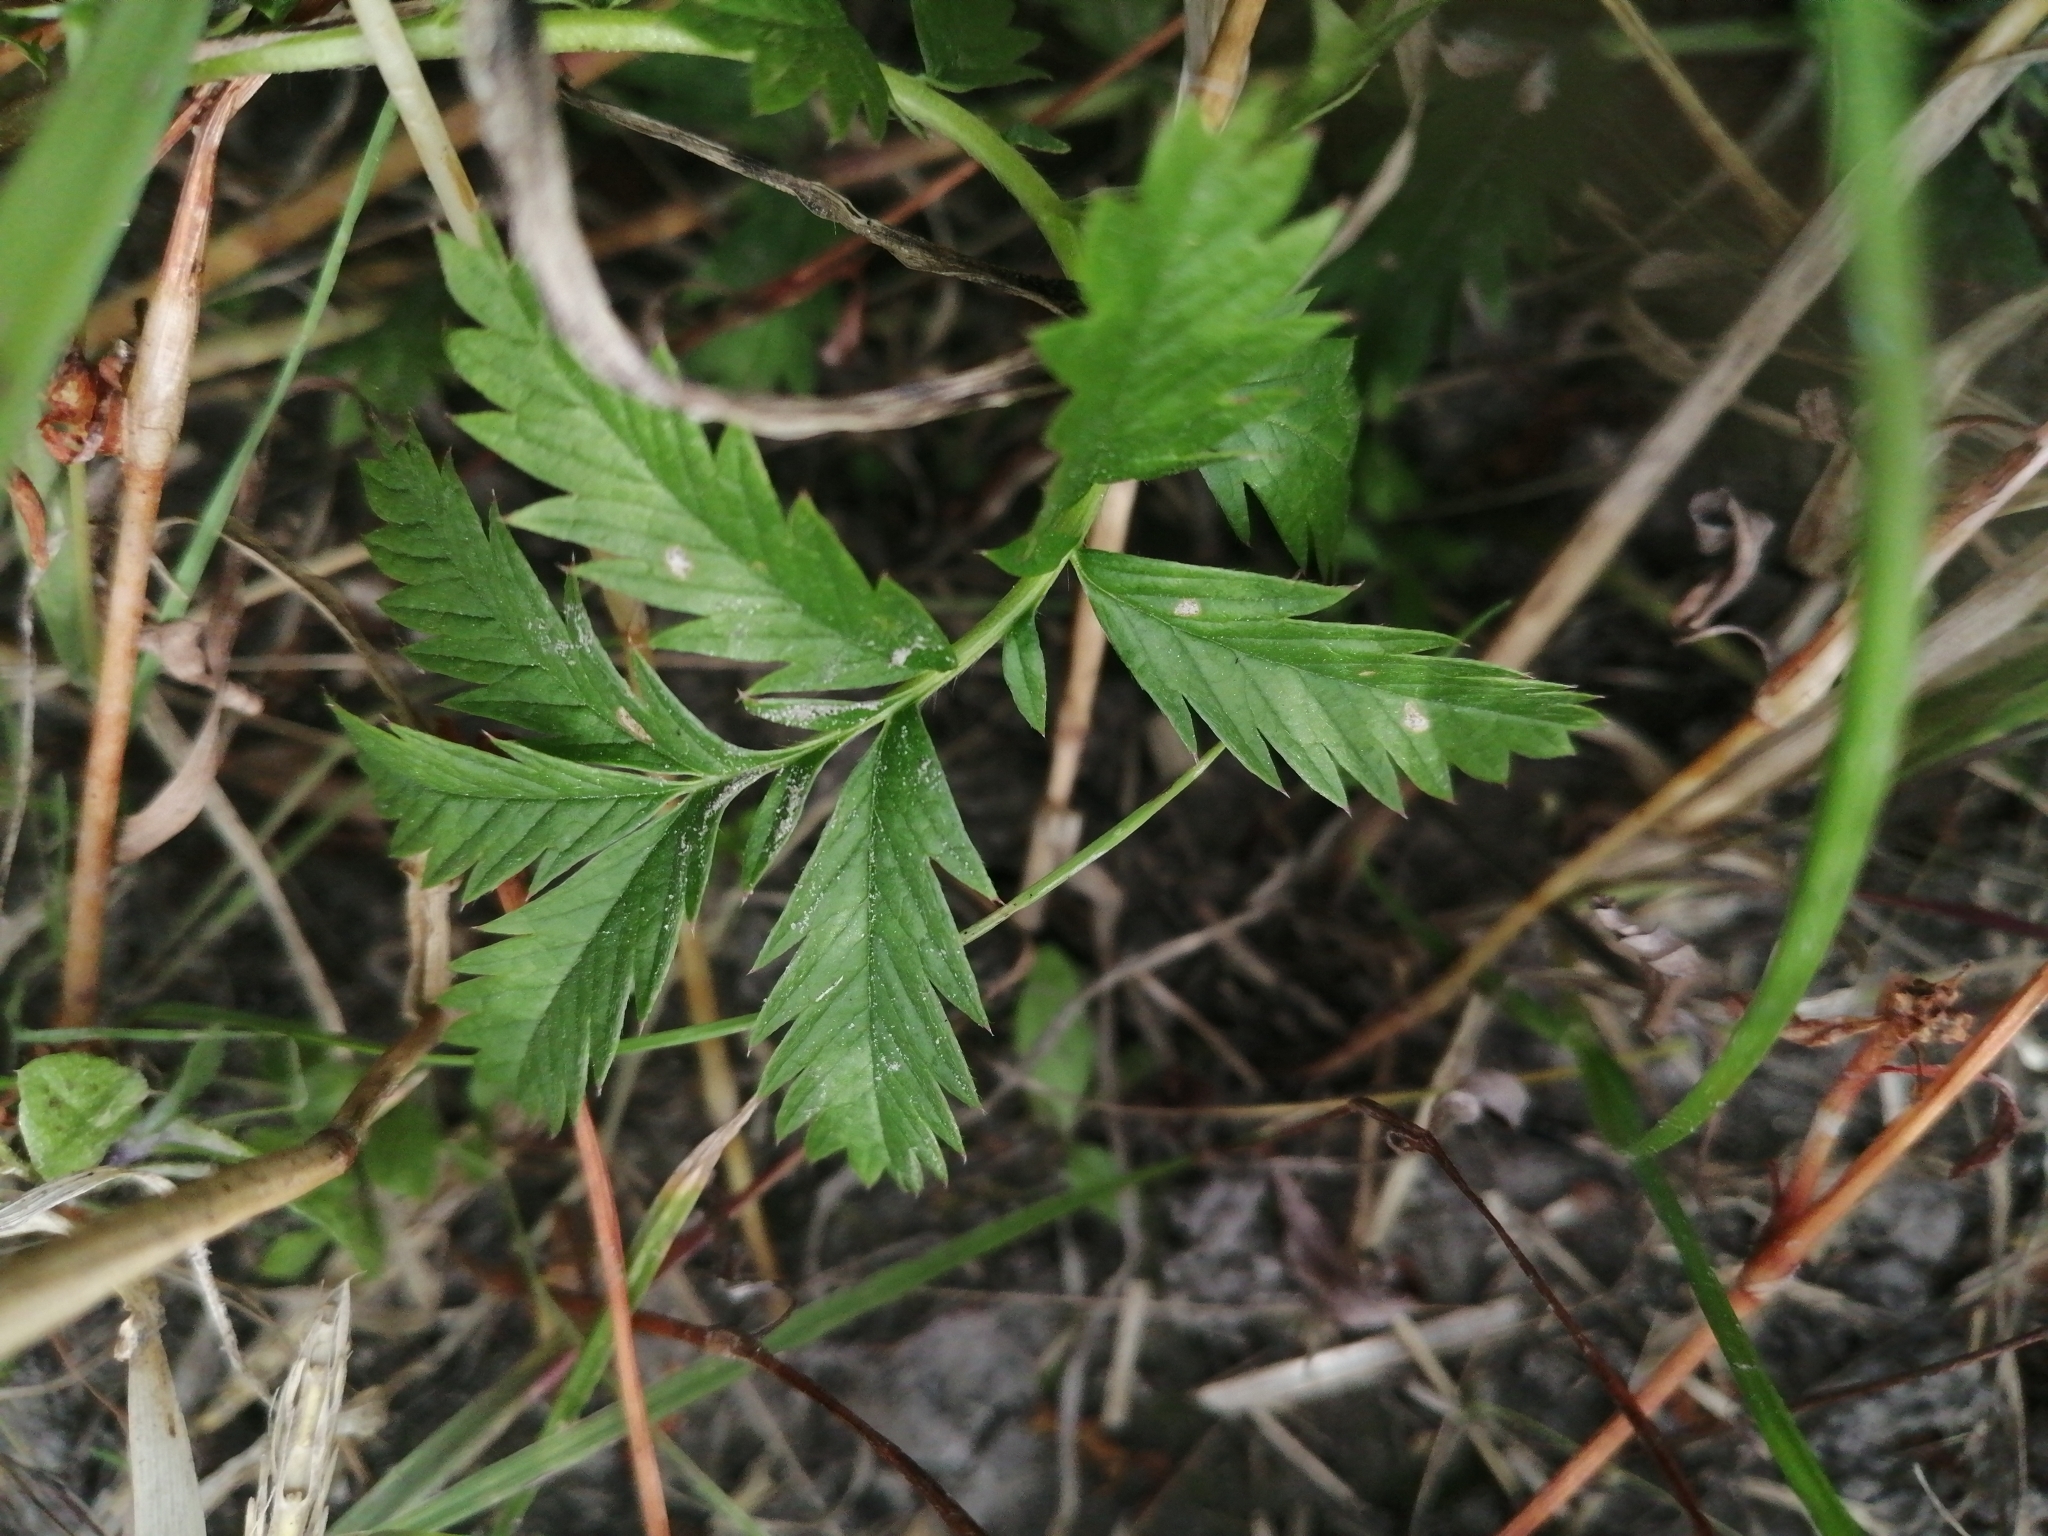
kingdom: Plantae
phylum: Tracheophyta
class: Magnoliopsida
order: Rosales
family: Rosaceae
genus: Argentina
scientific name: Argentina anserina
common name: Common silverweed
